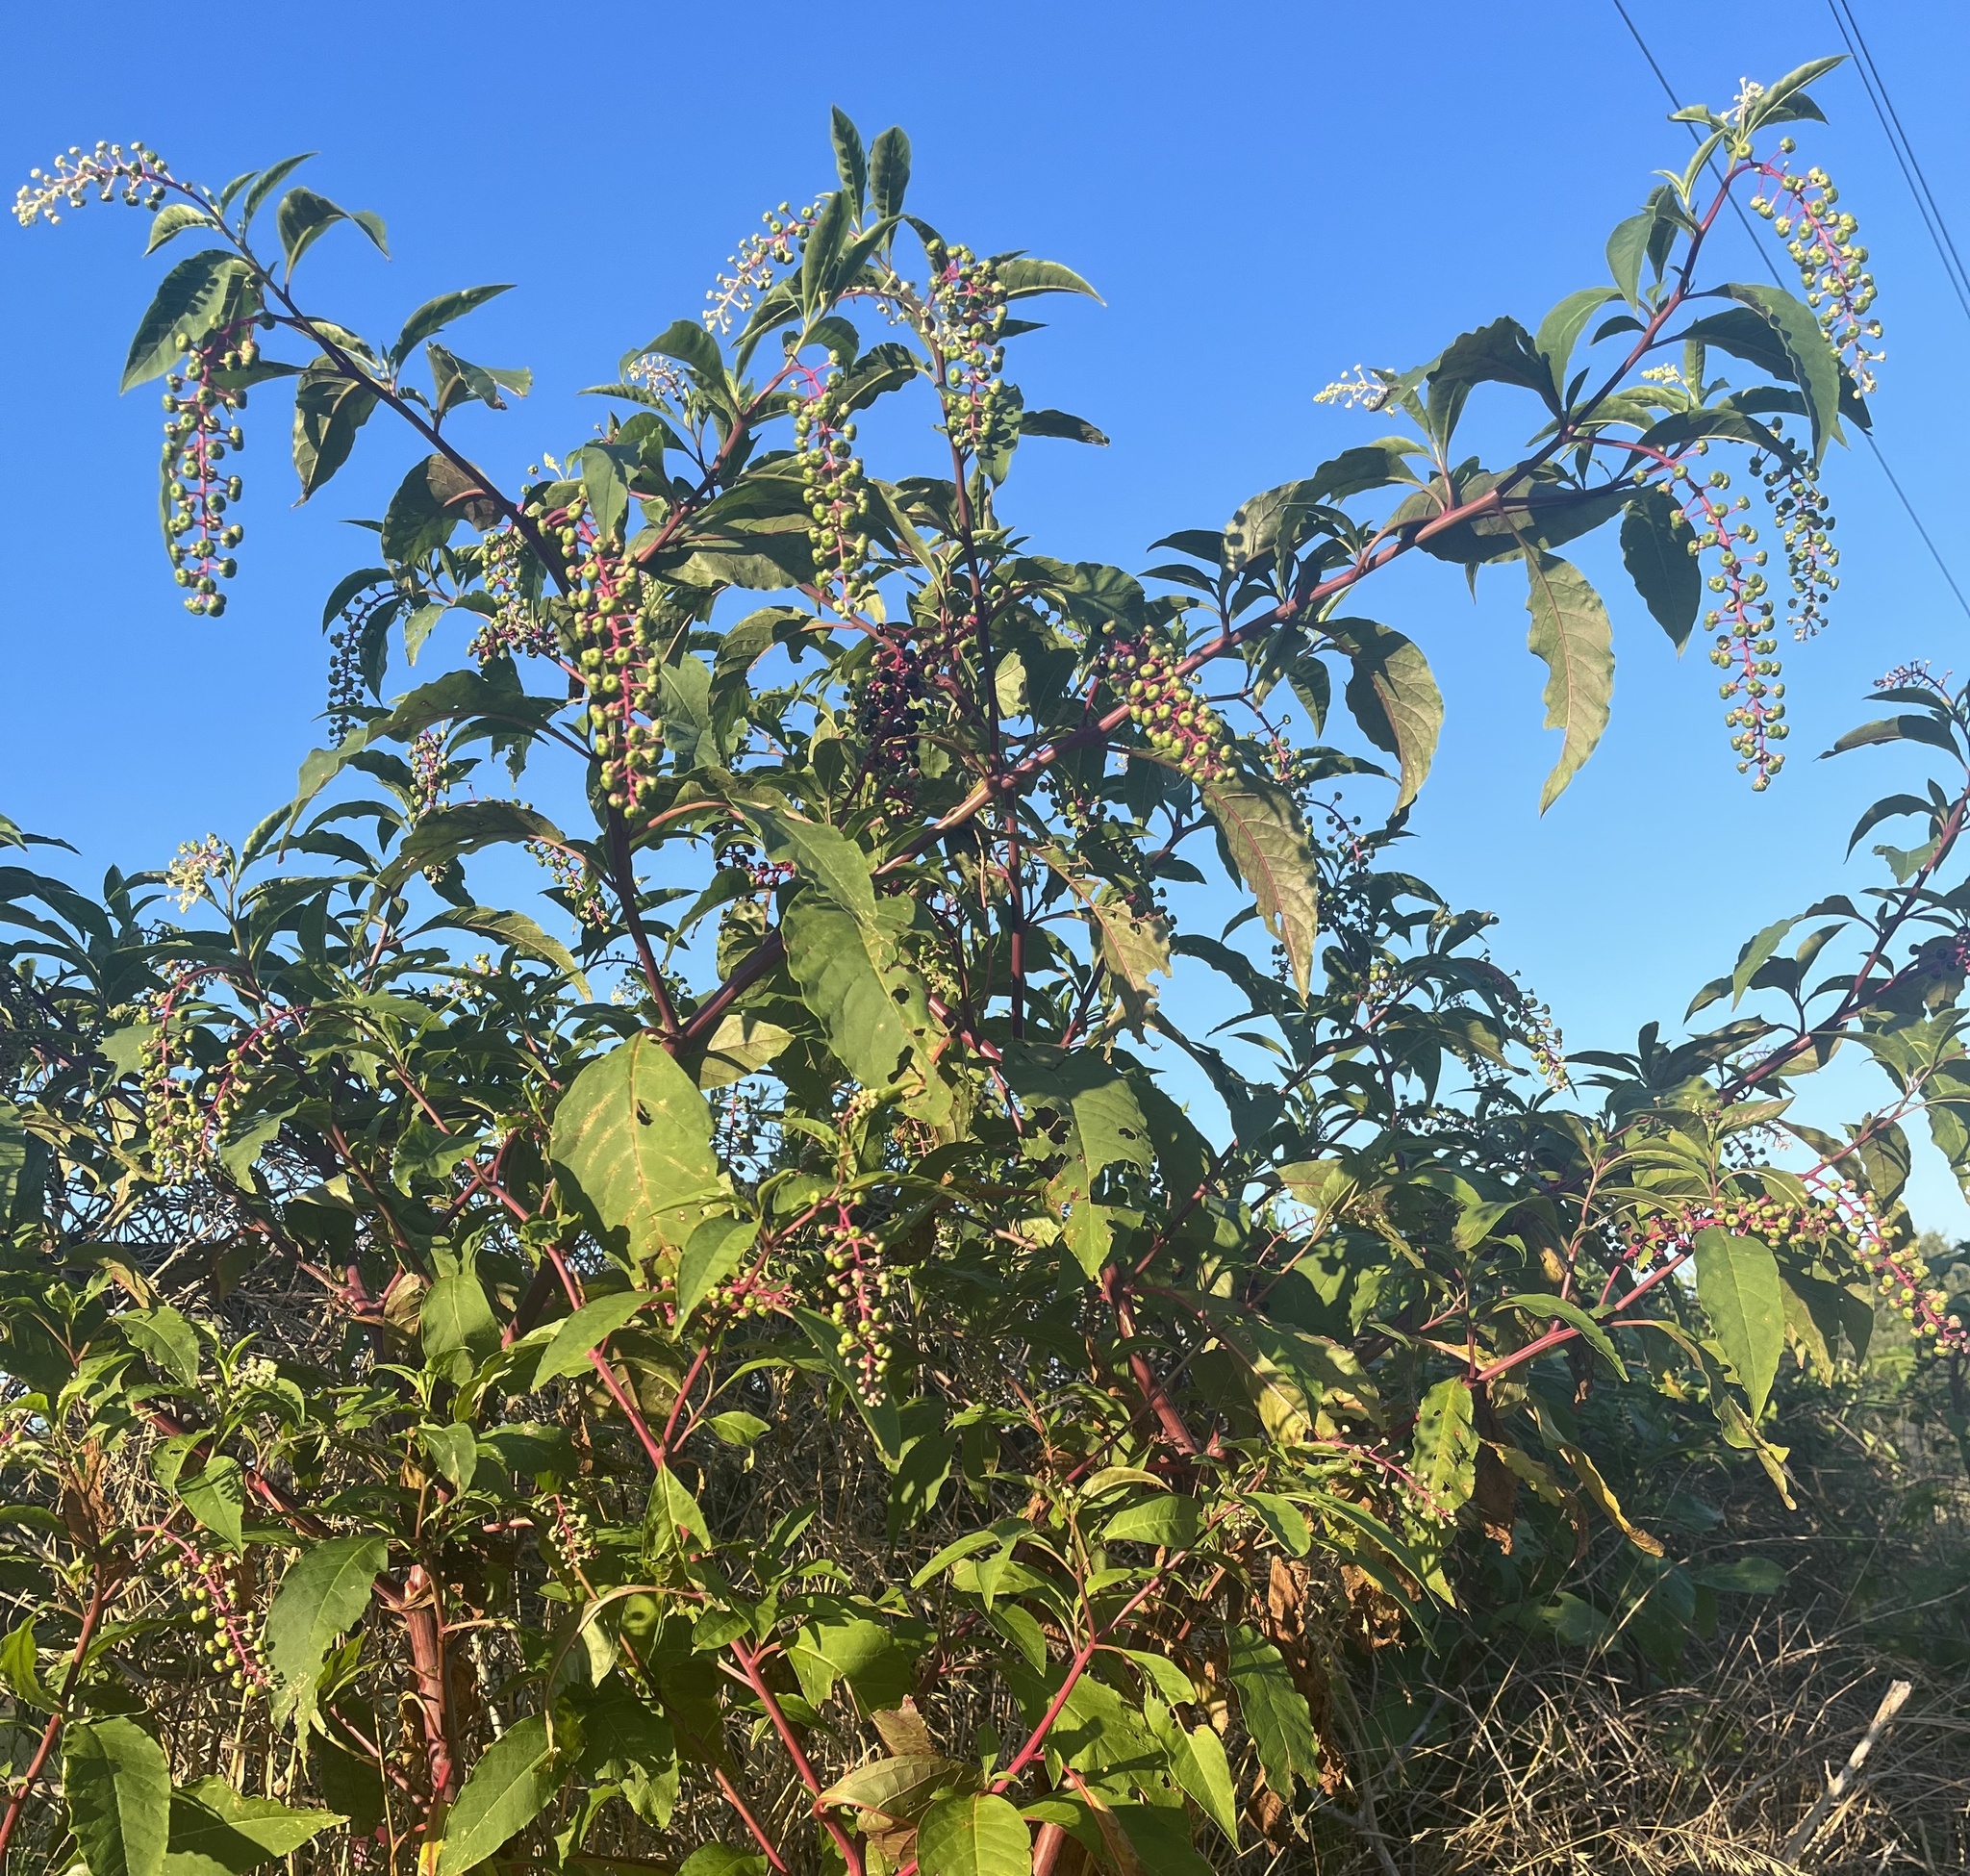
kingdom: Plantae
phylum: Tracheophyta
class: Magnoliopsida
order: Caryophyllales
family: Phytolaccaceae
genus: Phytolacca
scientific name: Phytolacca americana
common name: American pokeweed
